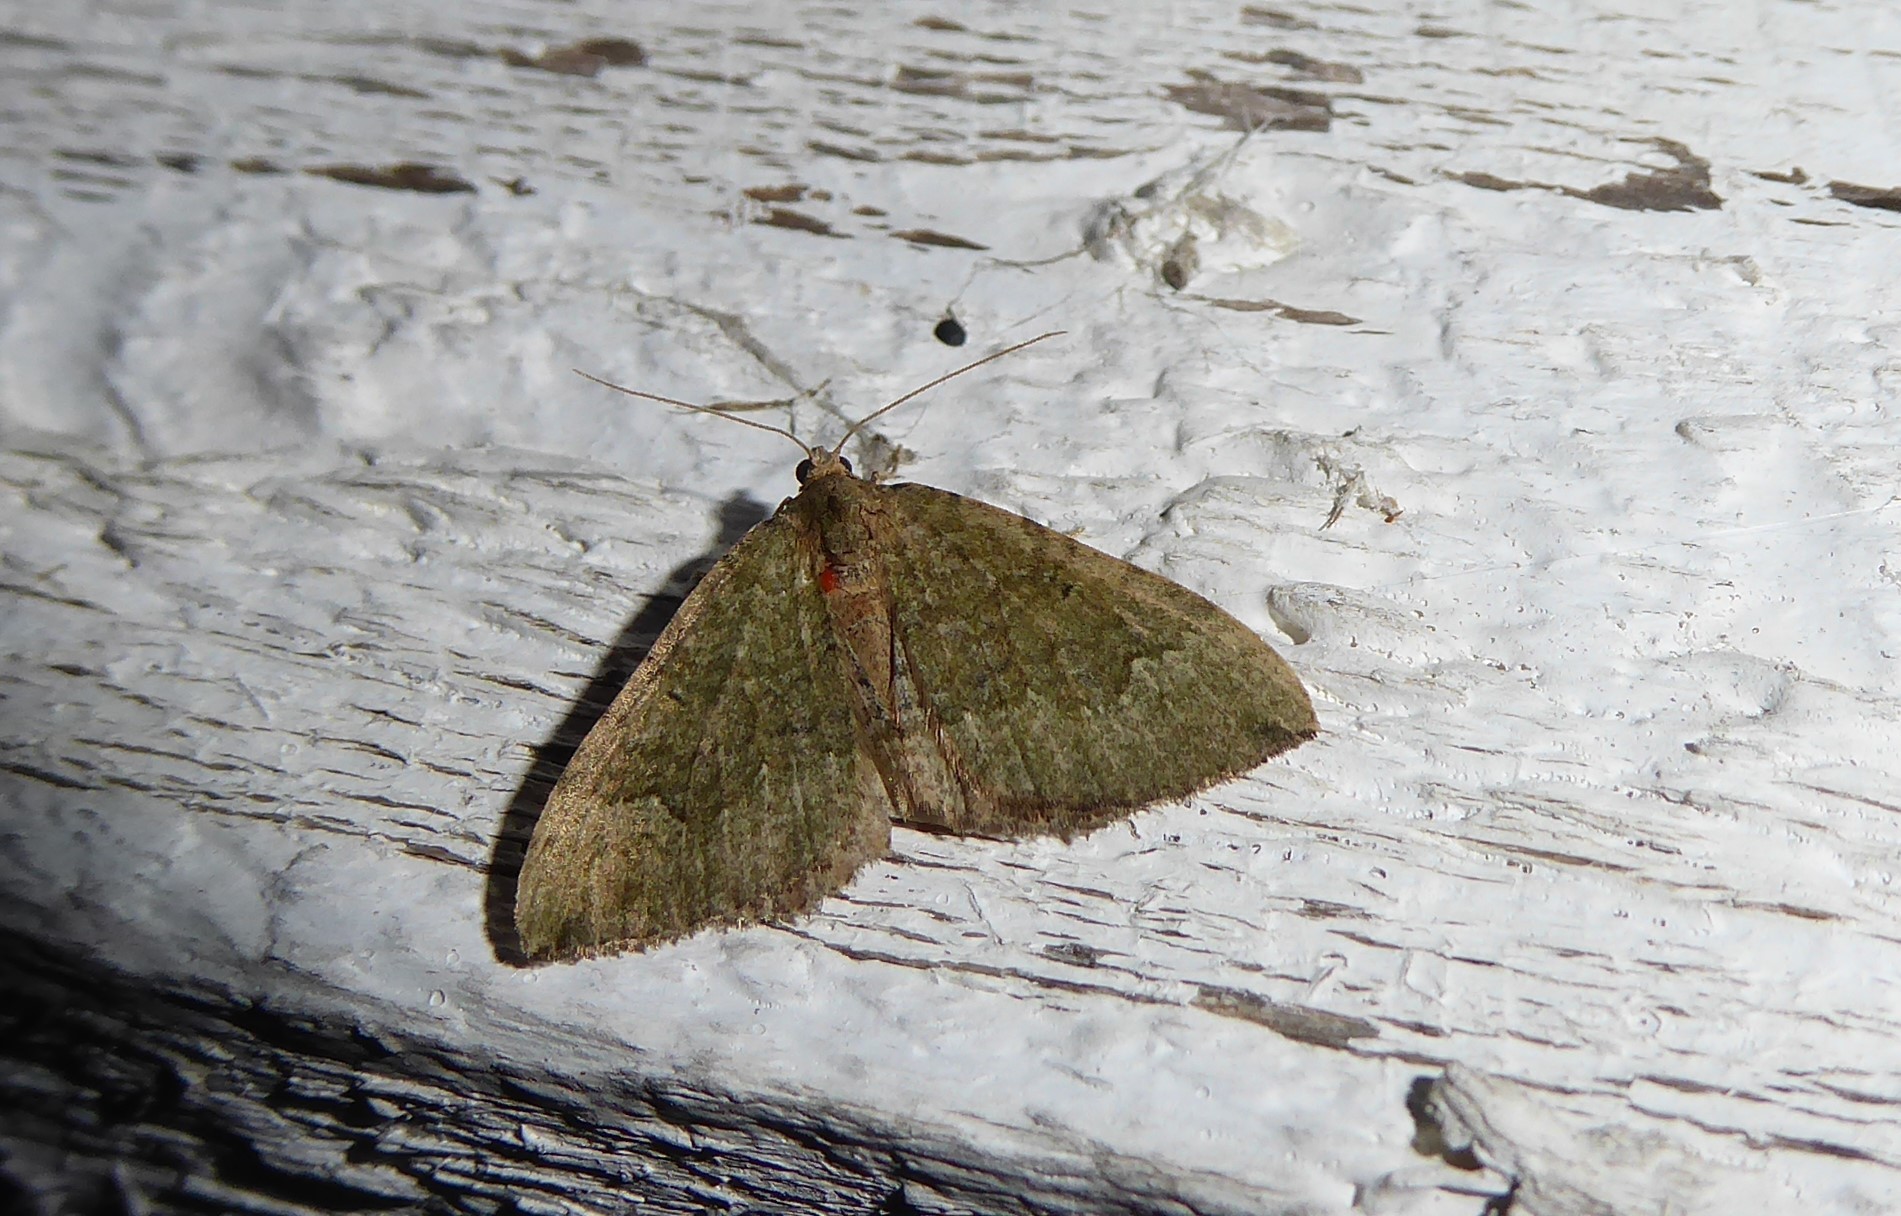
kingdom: Animalia
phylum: Arthropoda
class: Insecta
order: Lepidoptera
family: Geometridae
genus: Epyaxa
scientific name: Epyaxa rosearia
